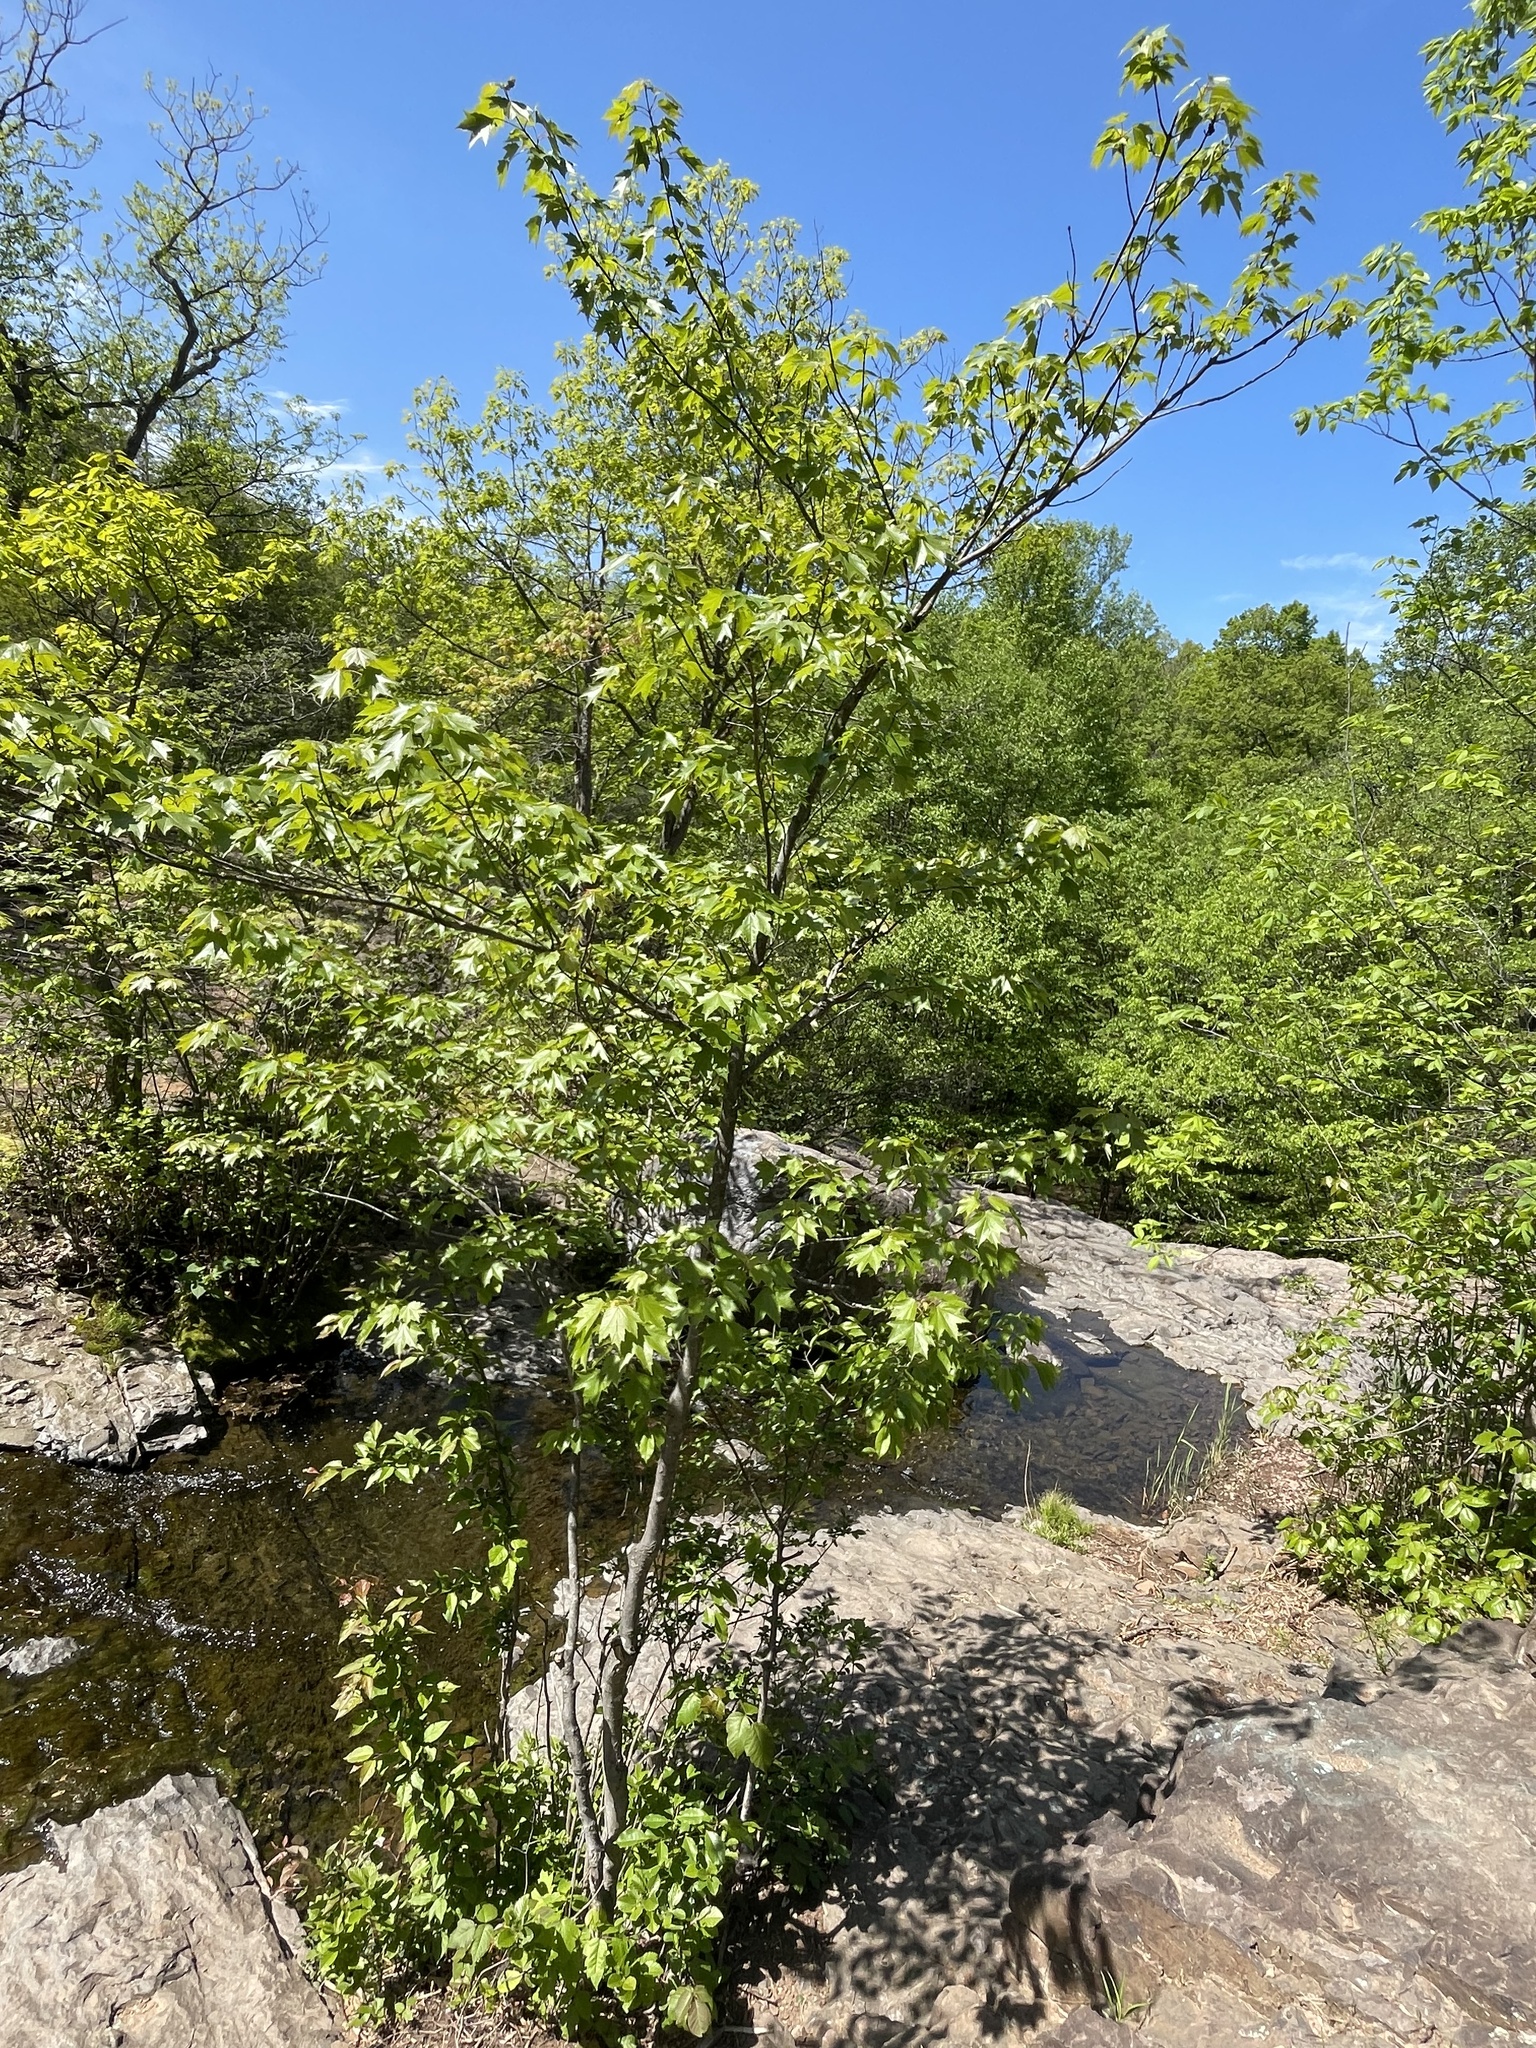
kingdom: Plantae
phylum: Tracheophyta
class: Magnoliopsida
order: Sapindales
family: Sapindaceae
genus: Acer
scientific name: Acer rubrum
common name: Red maple
